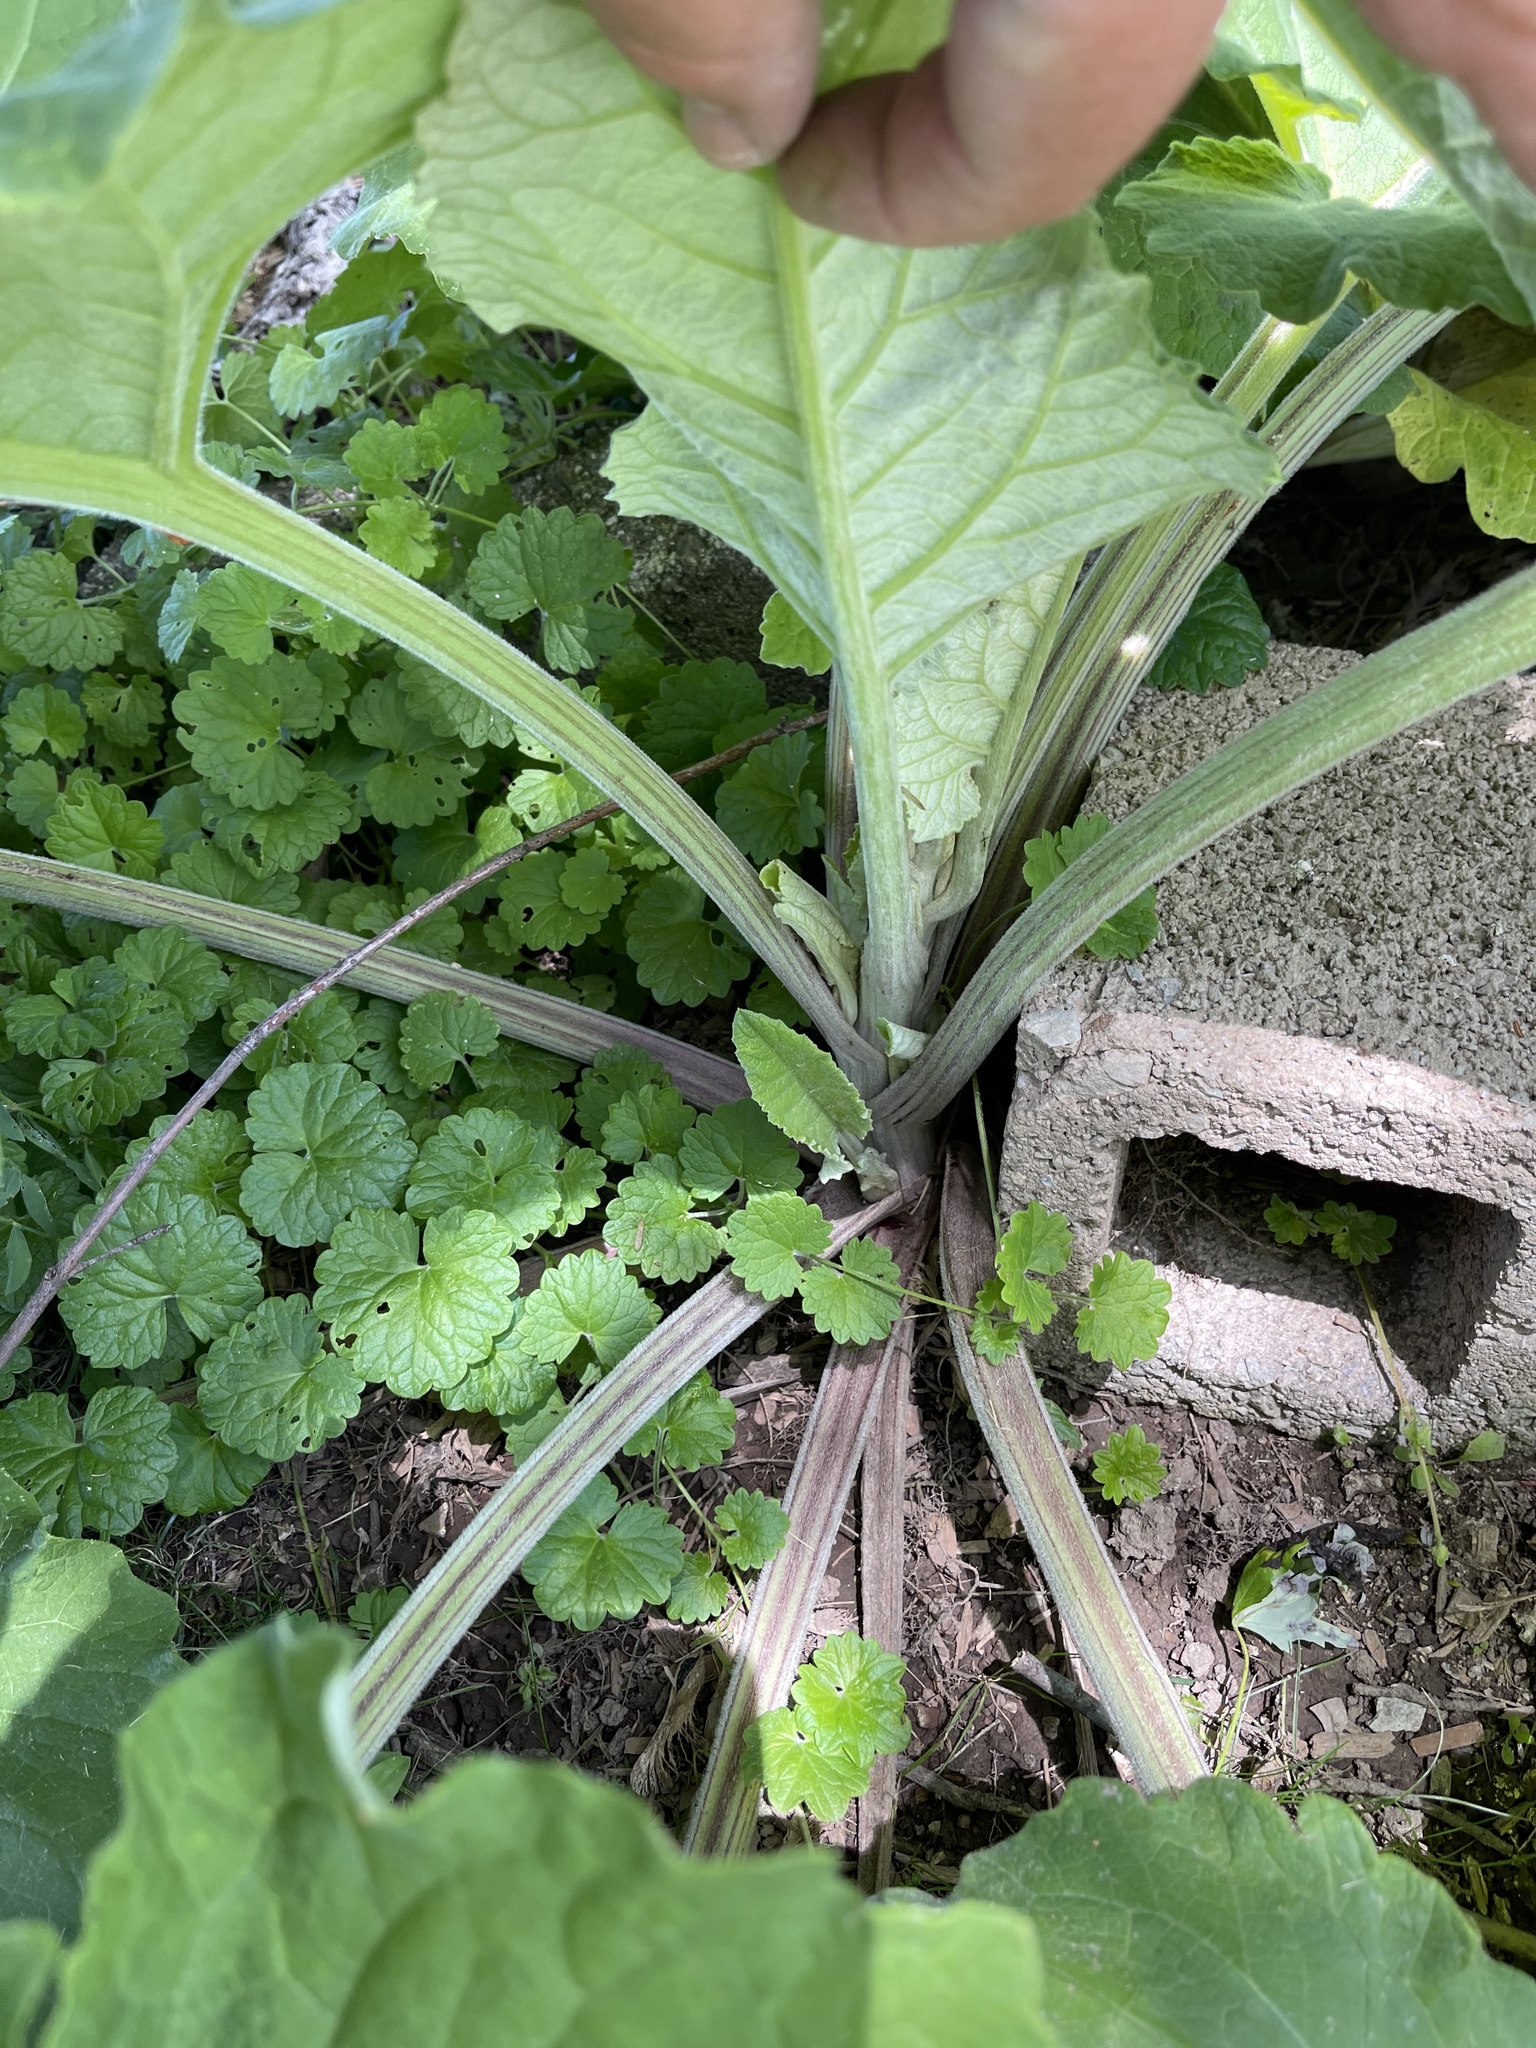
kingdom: Plantae
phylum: Tracheophyta
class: Magnoliopsida
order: Asterales
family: Asteraceae
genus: Arctium
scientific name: Arctium
